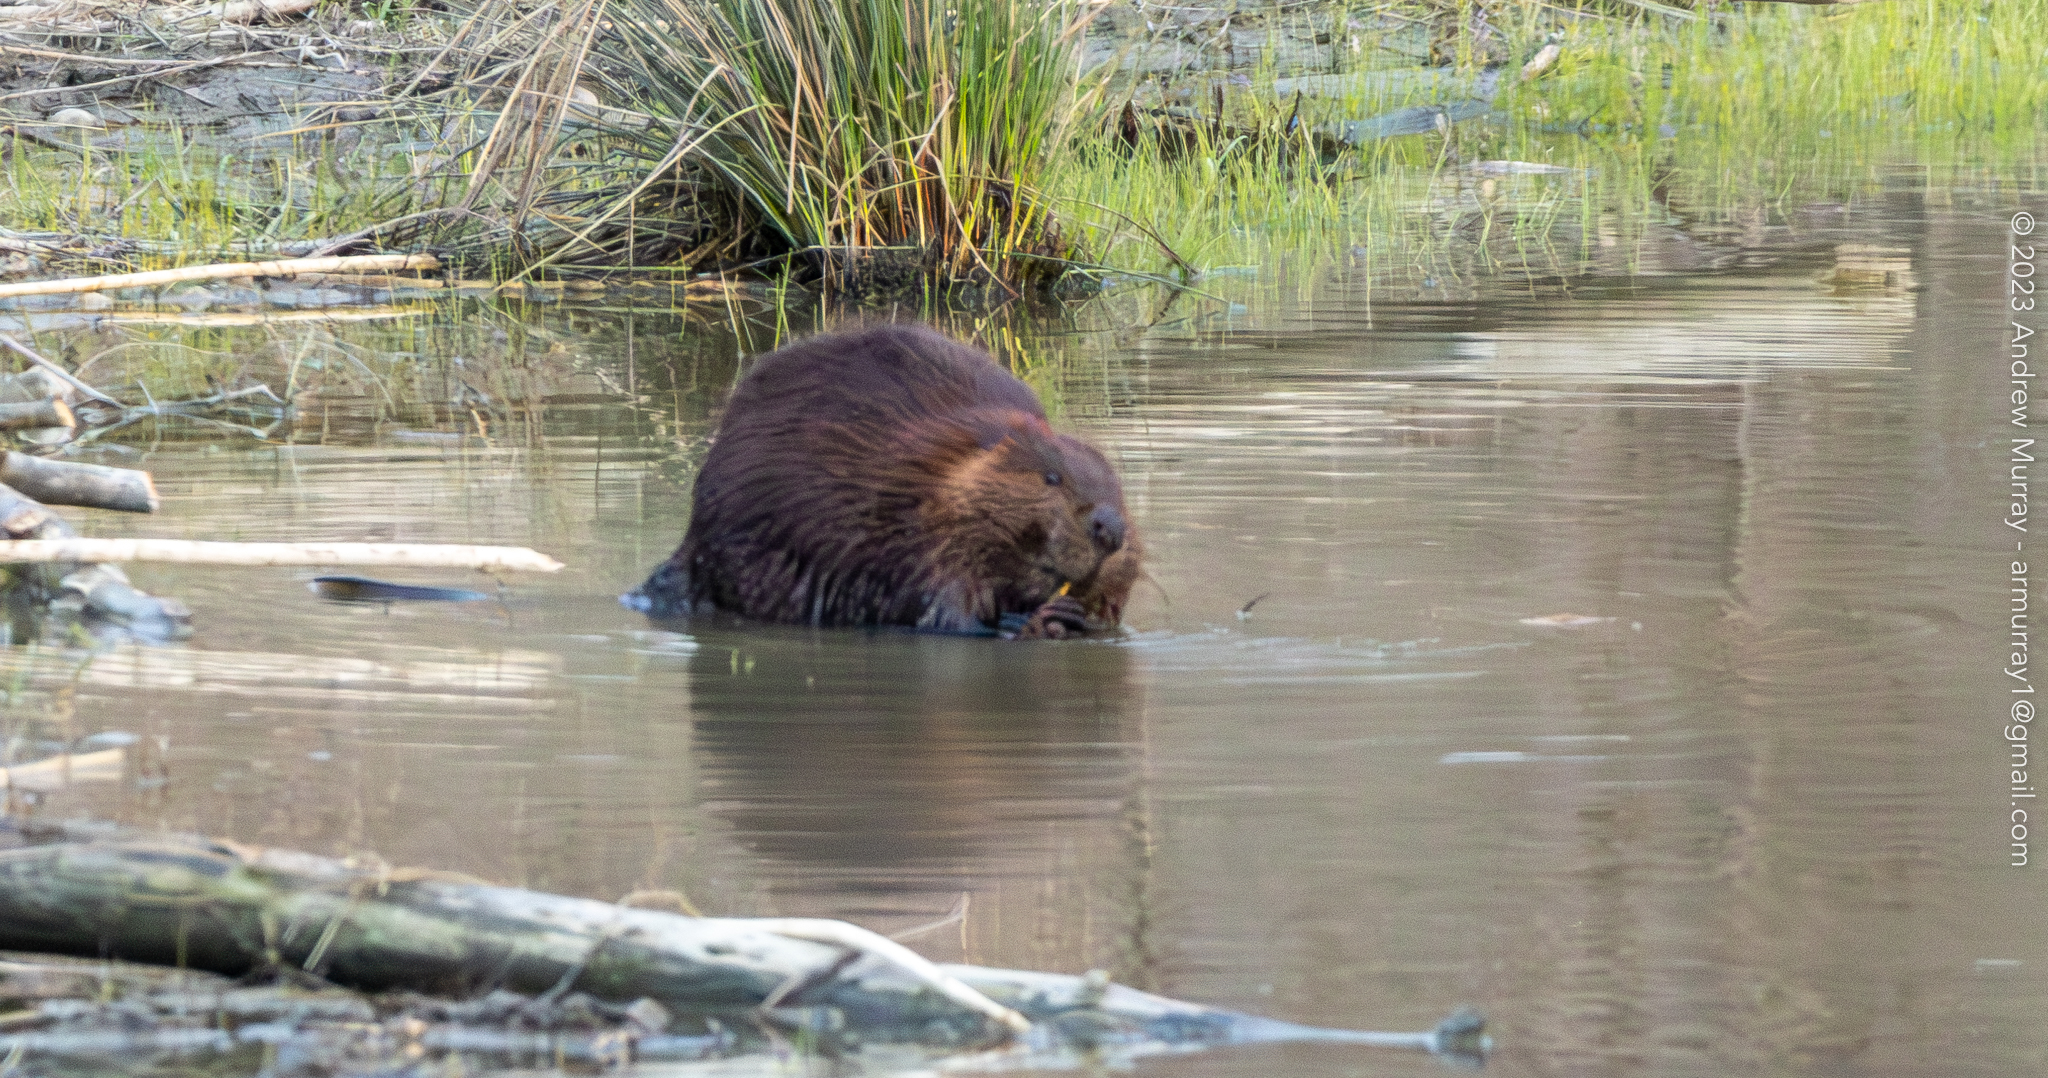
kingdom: Animalia
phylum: Chordata
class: Mammalia
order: Rodentia
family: Castoridae
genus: Castor
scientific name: Castor canadensis
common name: American beaver
